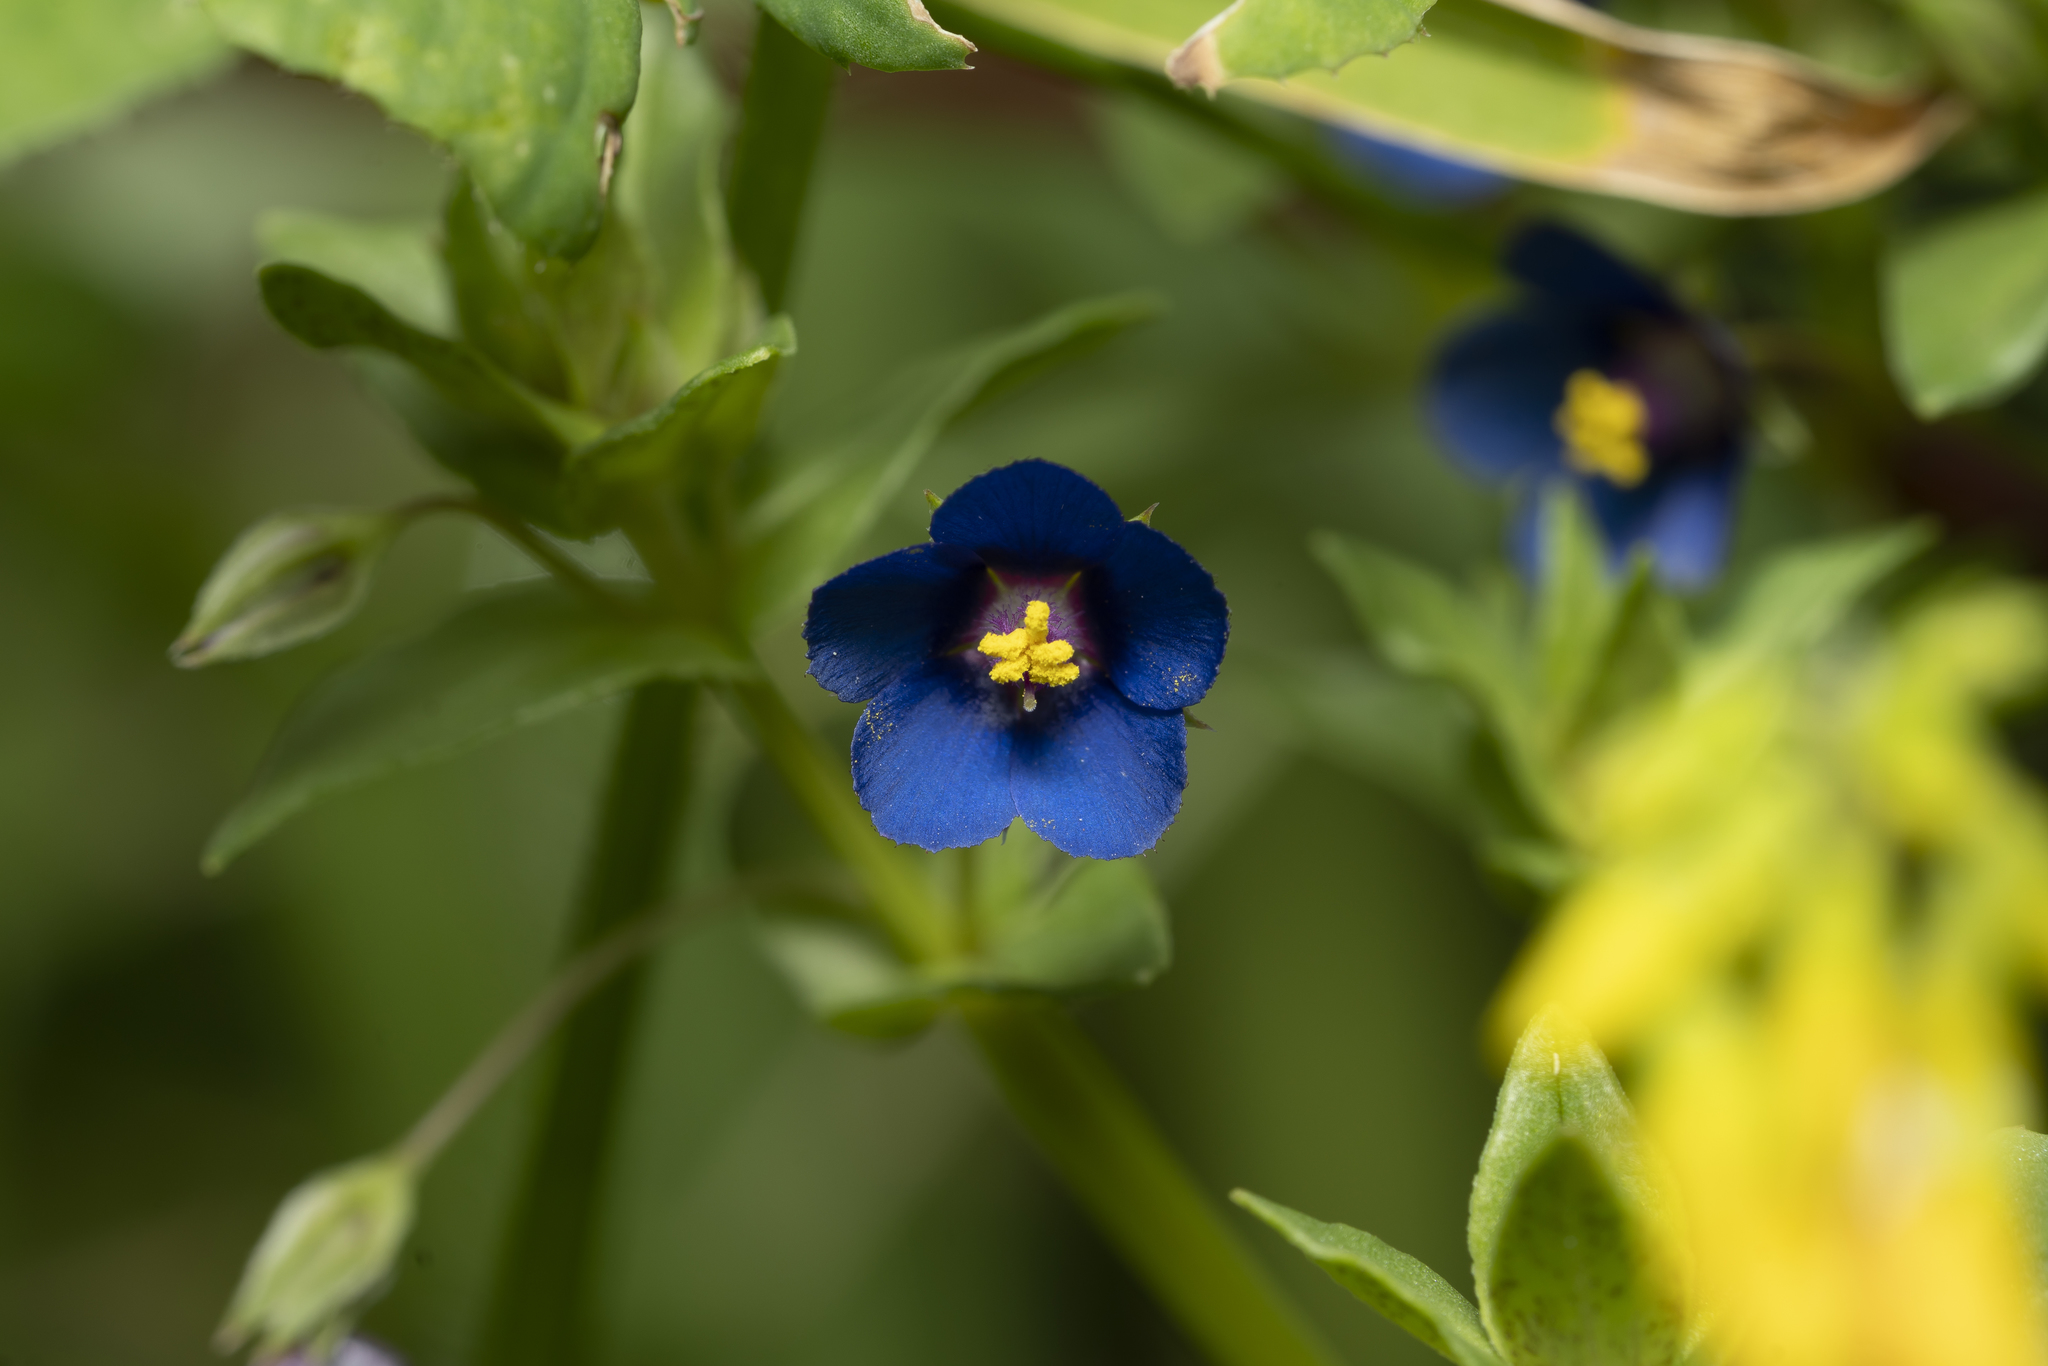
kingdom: Plantae
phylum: Tracheophyta
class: Magnoliopsida
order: Ericales
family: Primulaceae
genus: Lysimachia
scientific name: Lysimachia foemina
